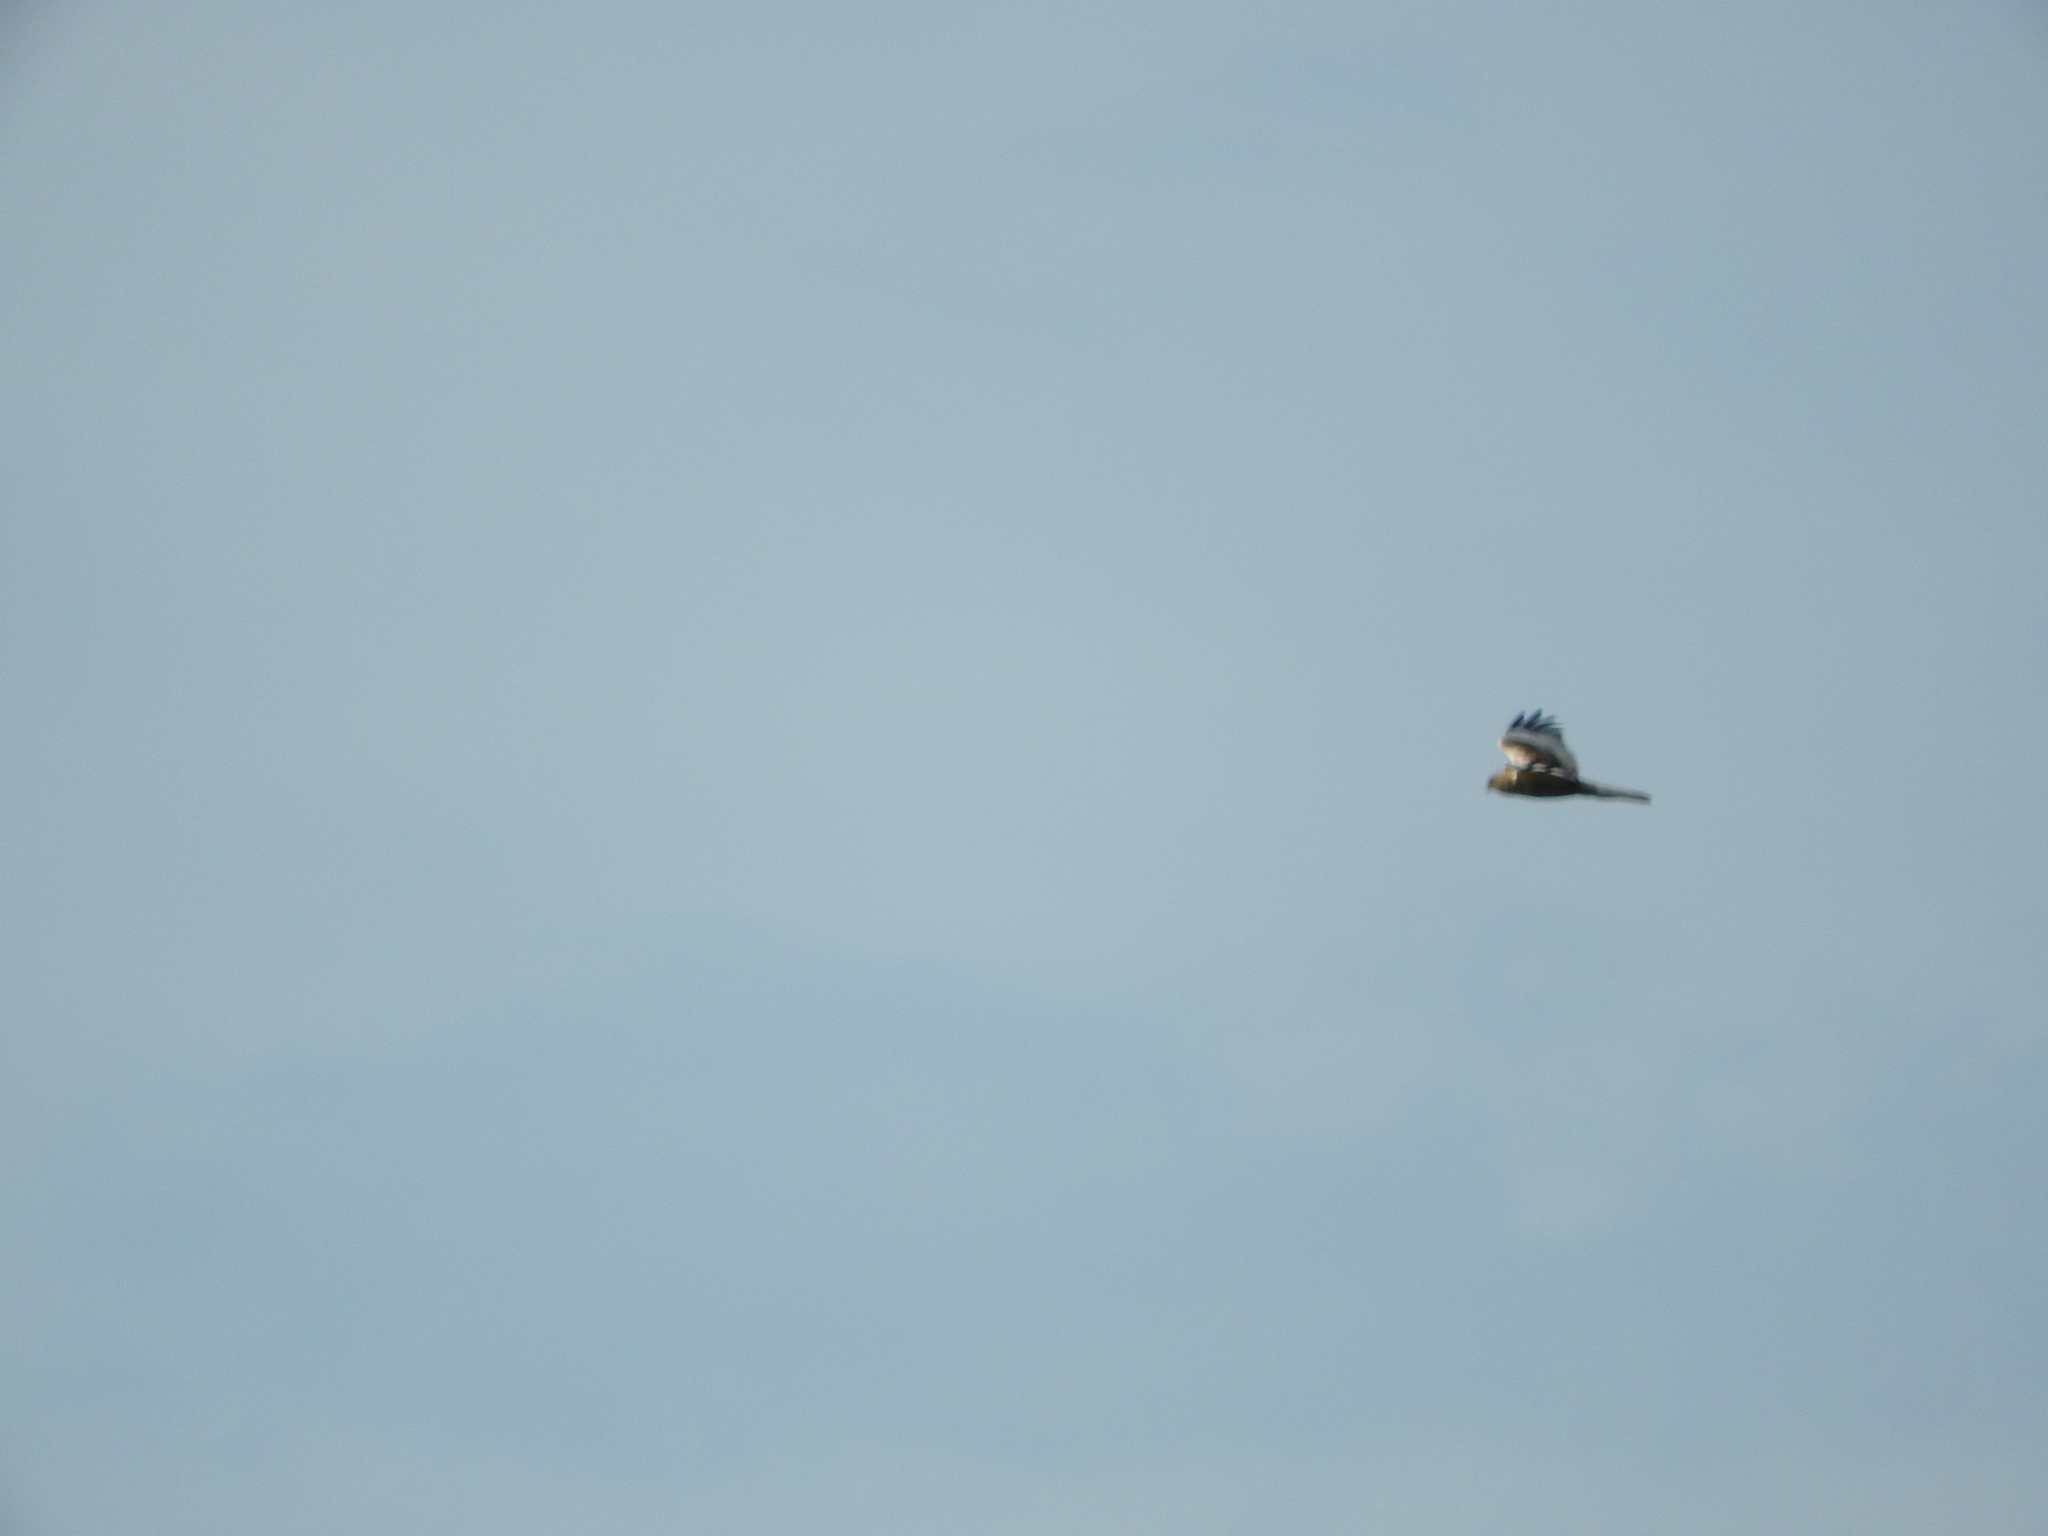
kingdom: Animalia
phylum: Chordata
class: Aves
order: Accipitriformes
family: Accipitridae
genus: Circus
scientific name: Circus aeruginosus
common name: Western marsh harrier
